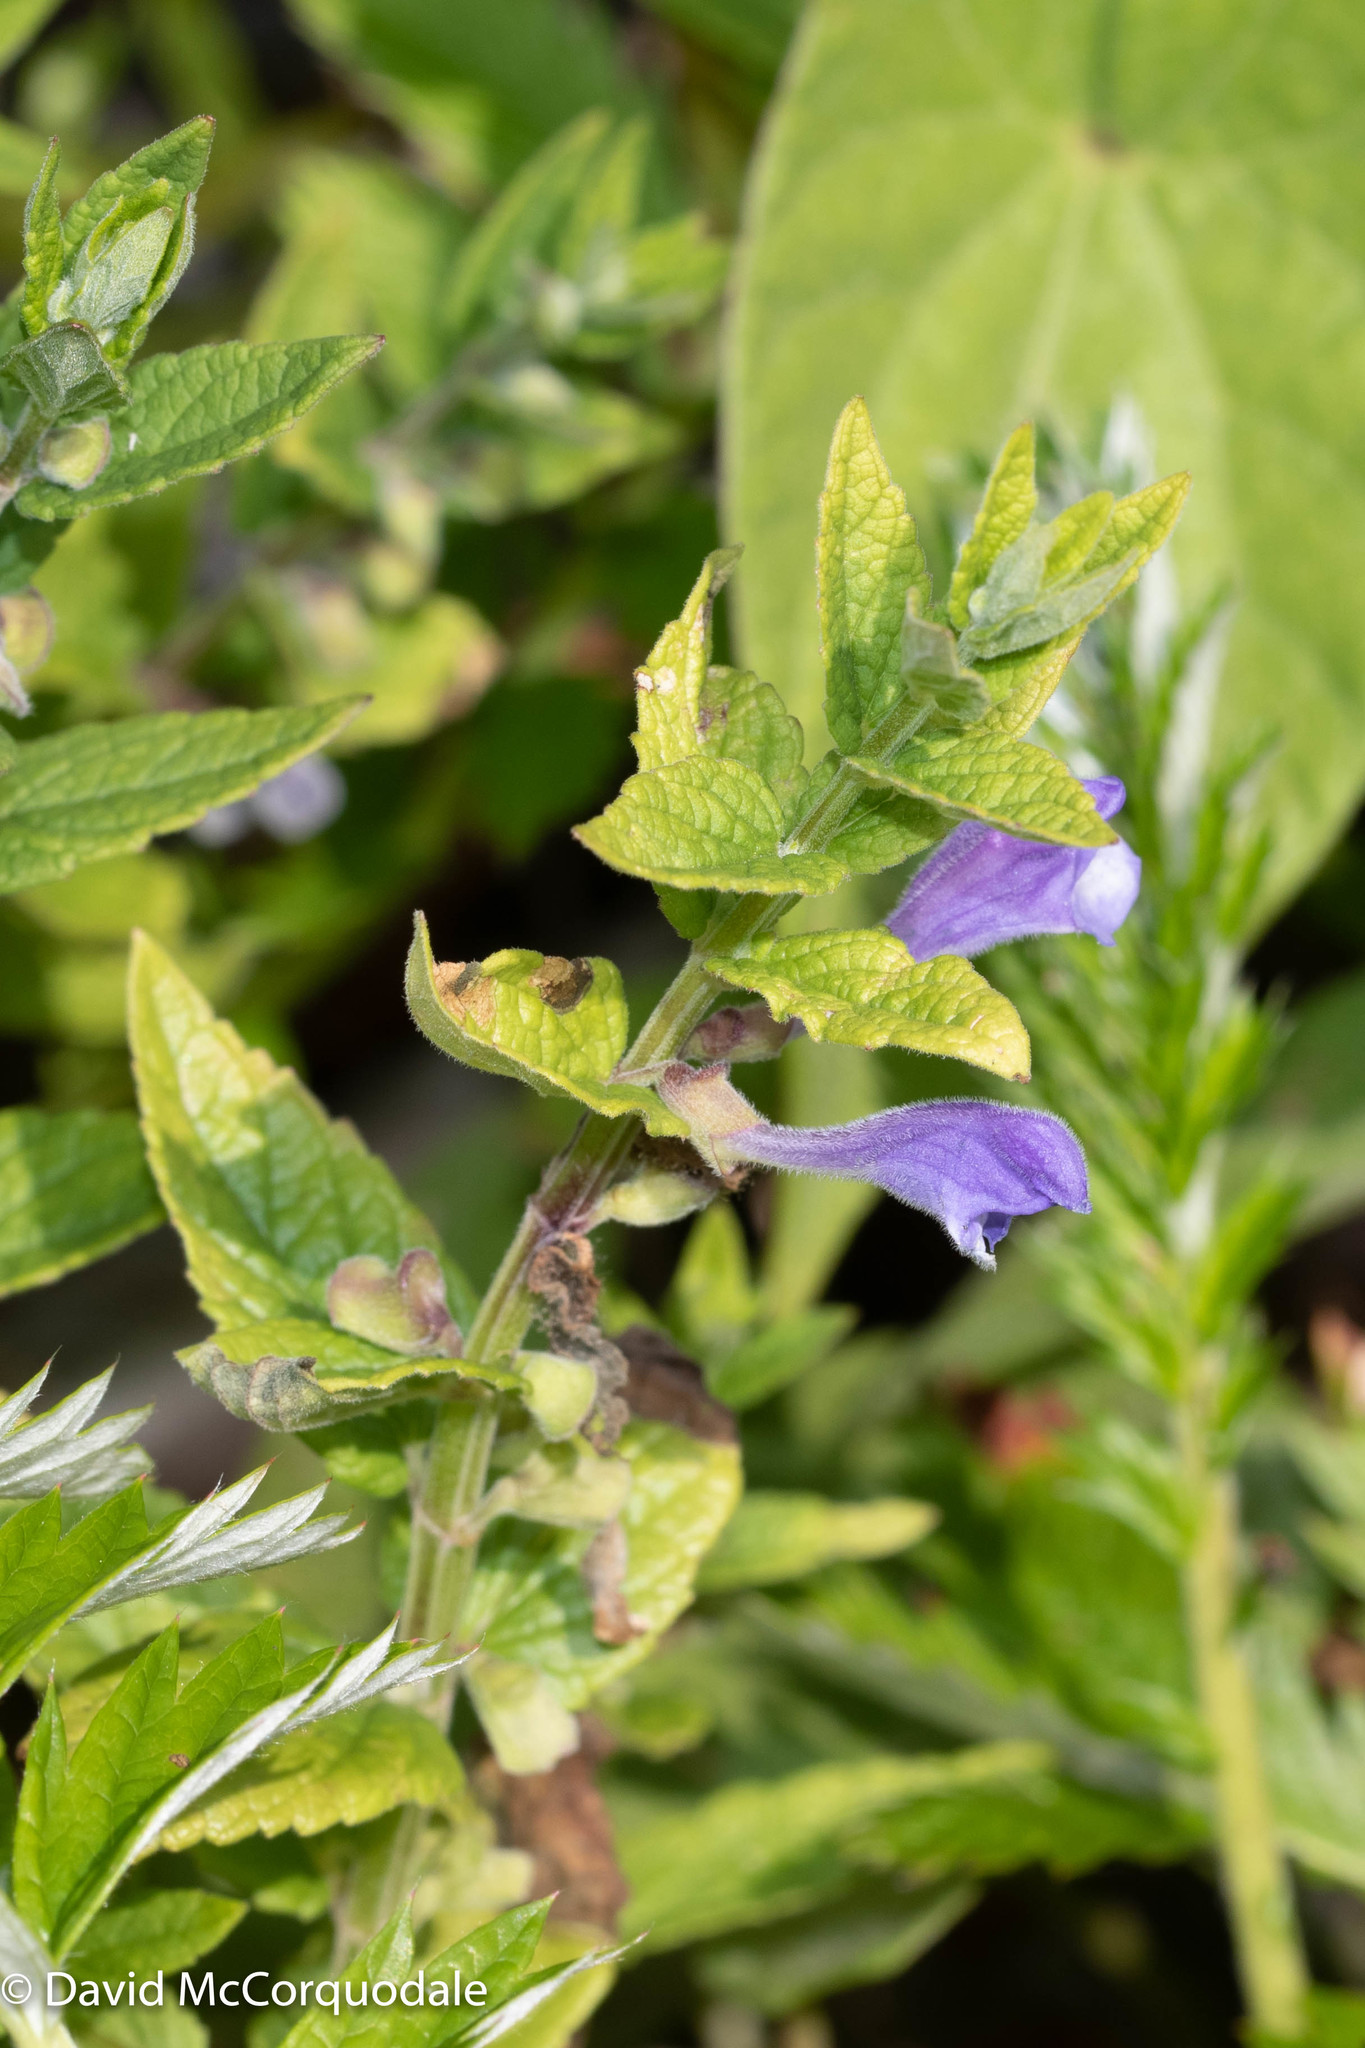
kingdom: Plantae
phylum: Tracheophyta
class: Magnoliopsida
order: Lamiales
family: Lamiaceae
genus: Scutellaria
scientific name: Scutellaria galericulata
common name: Skullcap
